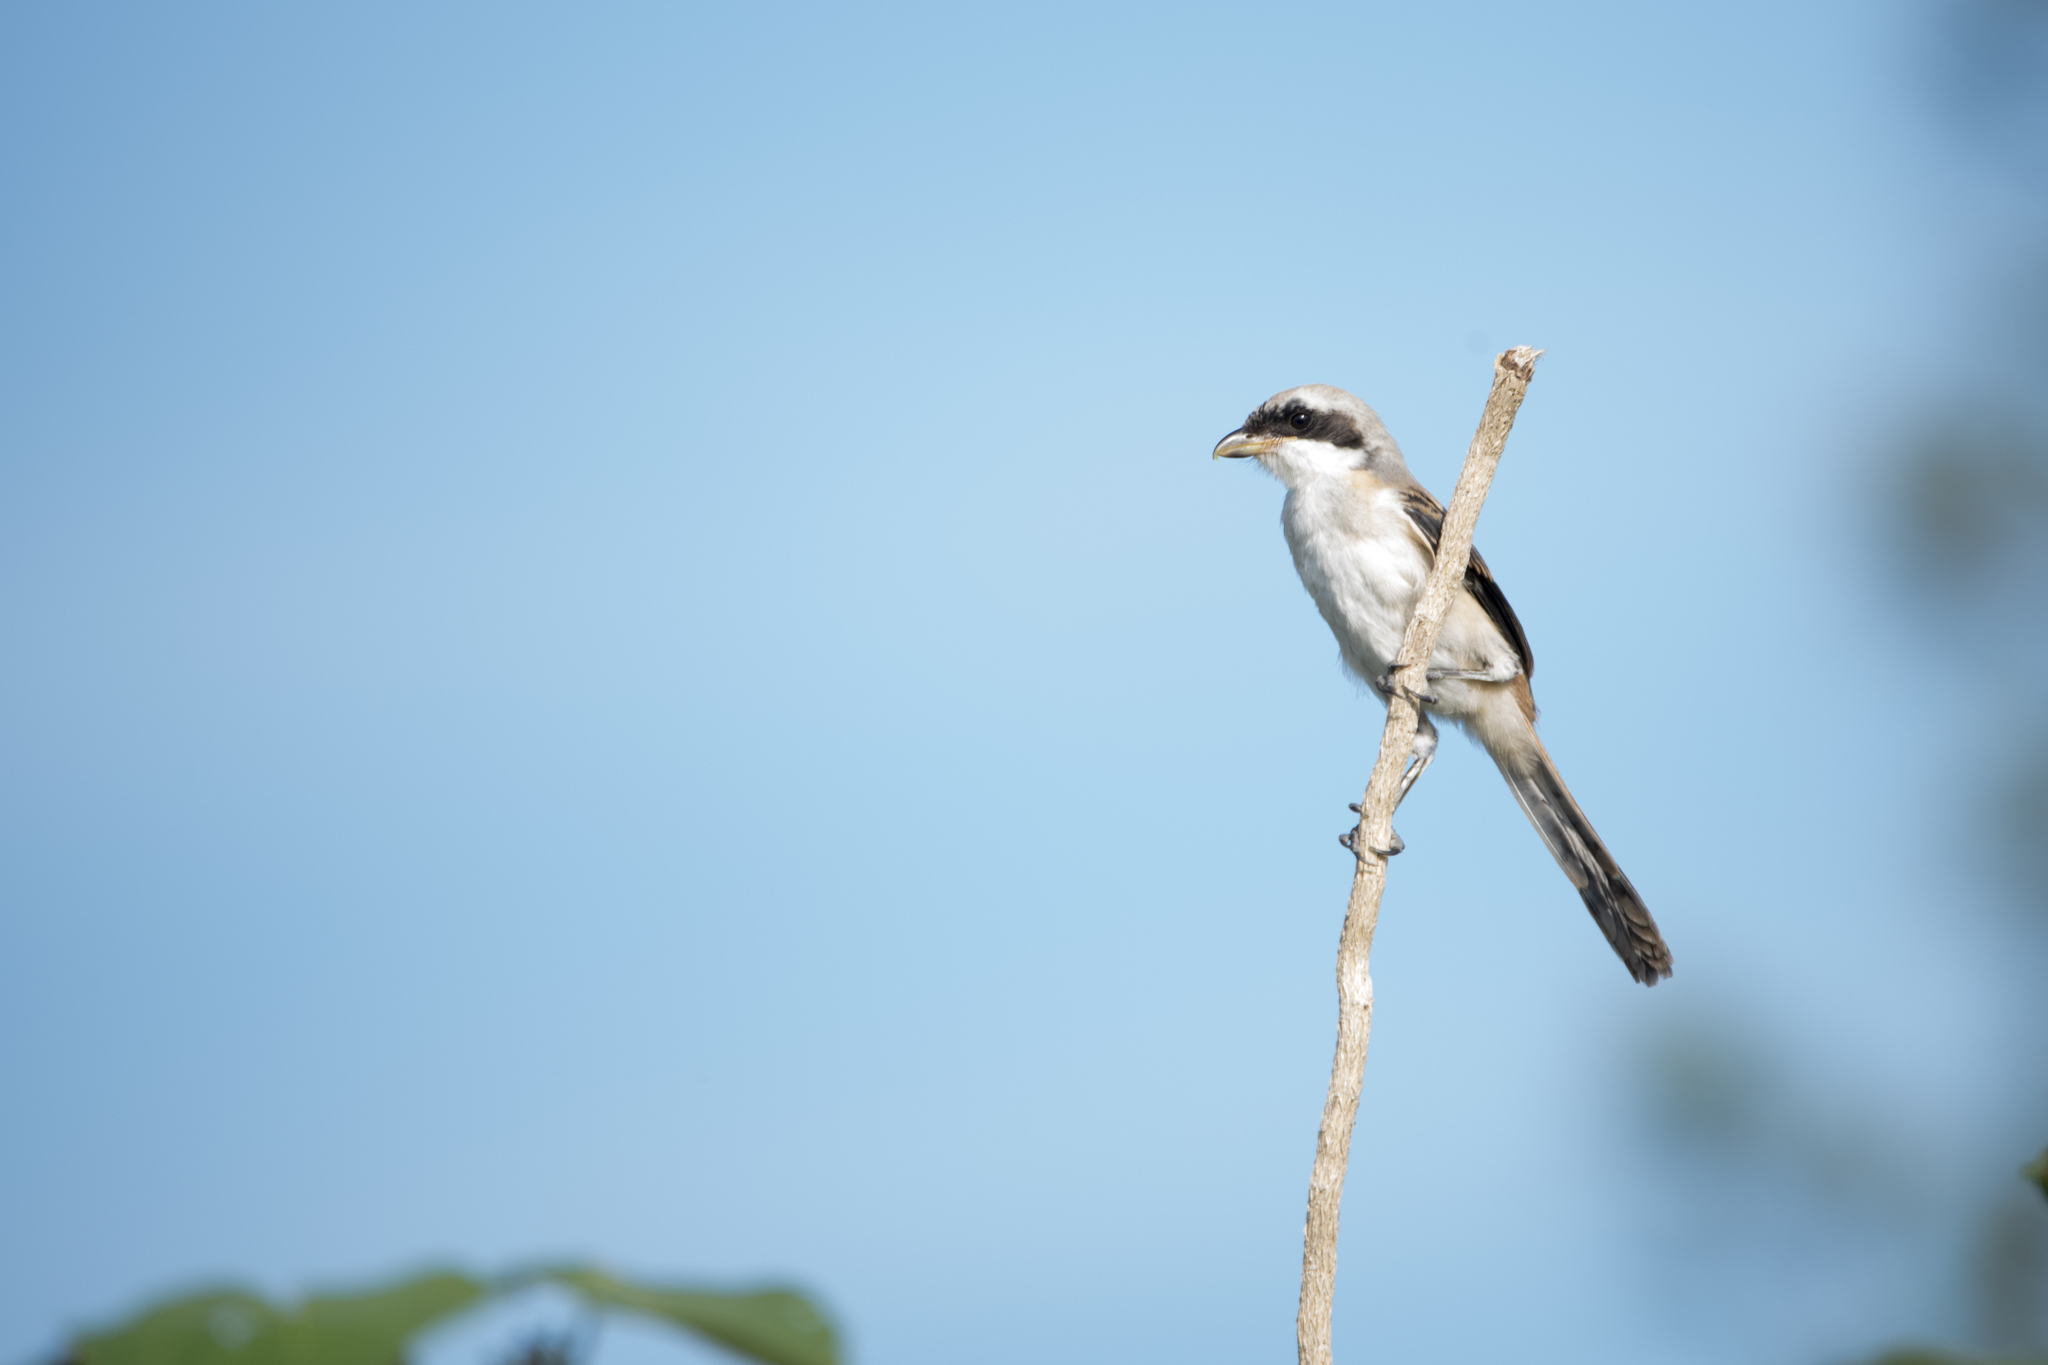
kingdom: Animalia
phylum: Chordata
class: Aves
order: Passeriformes
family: Laniidae
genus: Lanius
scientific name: Lanius schach
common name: Long-tailed shrike
